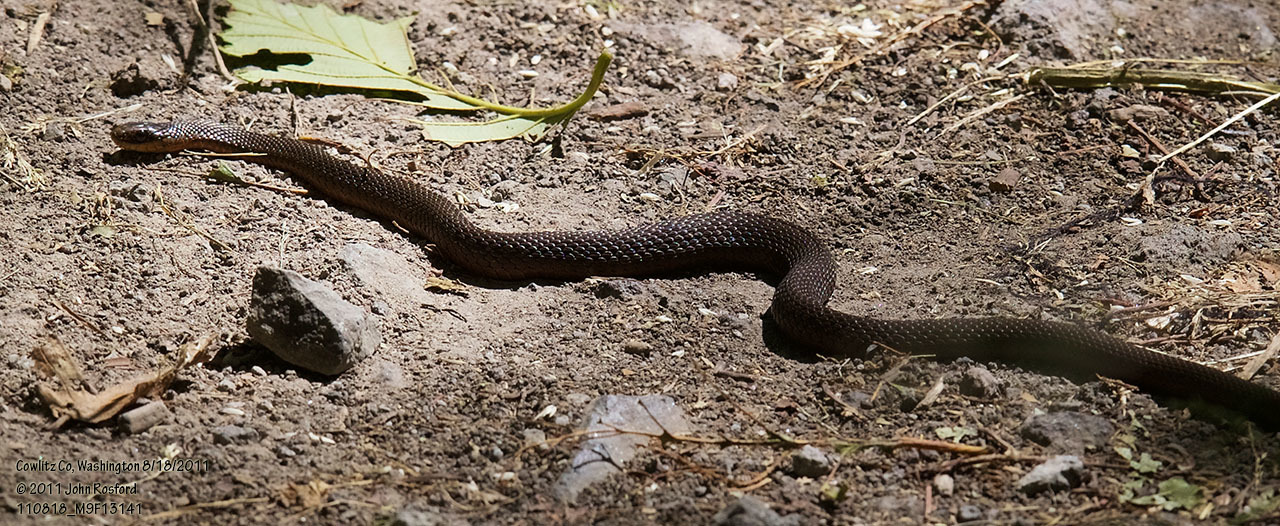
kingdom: Animalia
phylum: Chordata
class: Squamata
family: Colubridae
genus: Thamnophis
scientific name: Thamnophis ordinoides
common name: Northwestern garter snake
